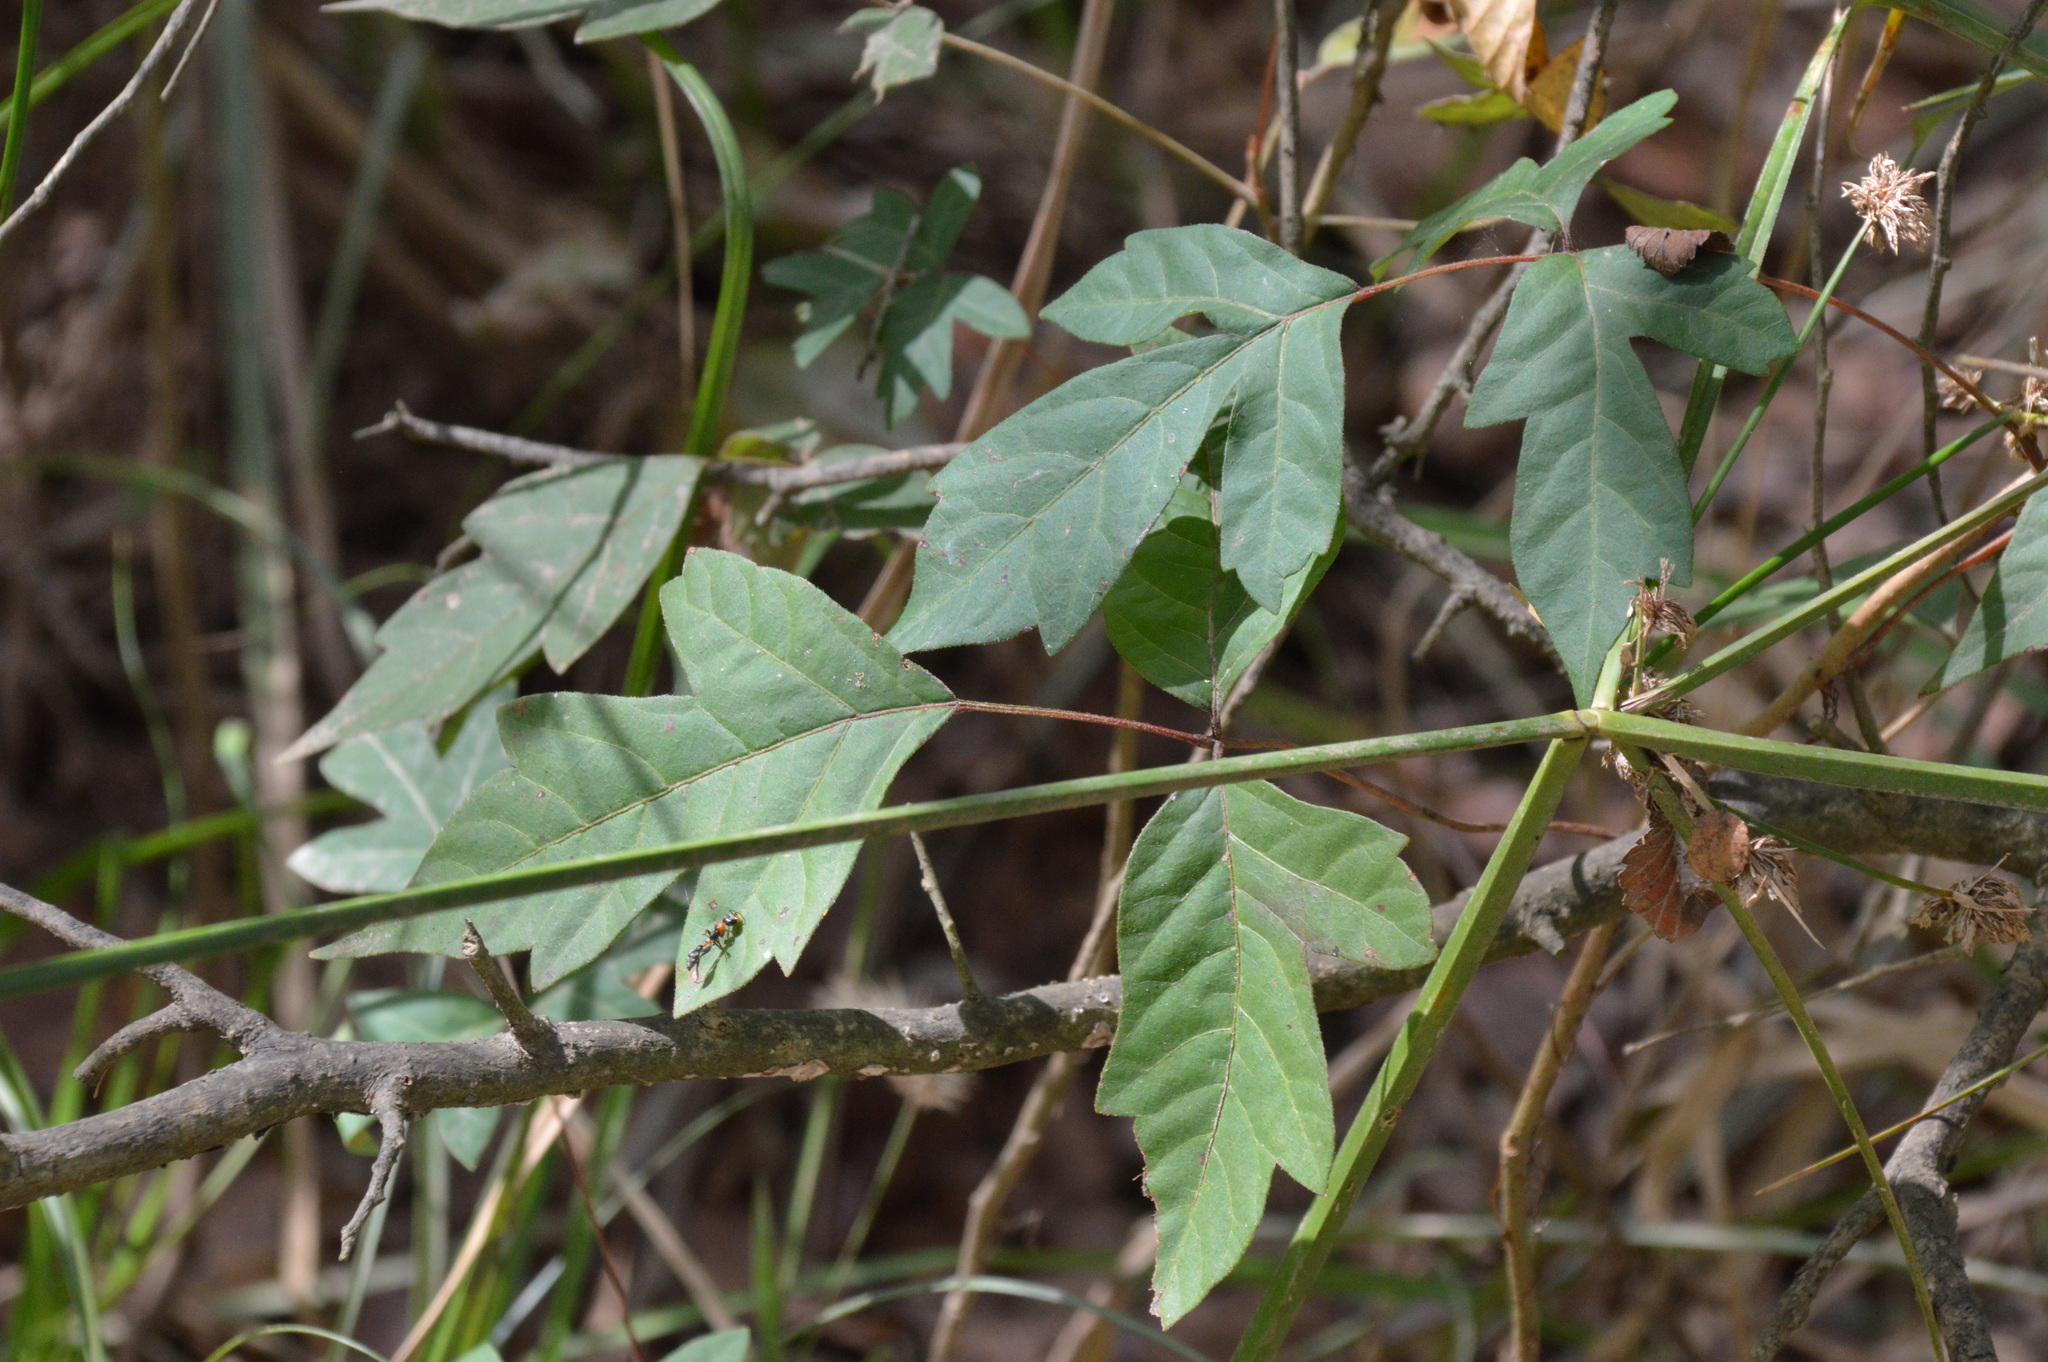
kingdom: Plantae
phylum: Tracheophyta
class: Magnoliopsida
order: Sapindales
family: Anacardiaceae
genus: Toxicodendron
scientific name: Toxicodendron radicans
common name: Poison ivy
